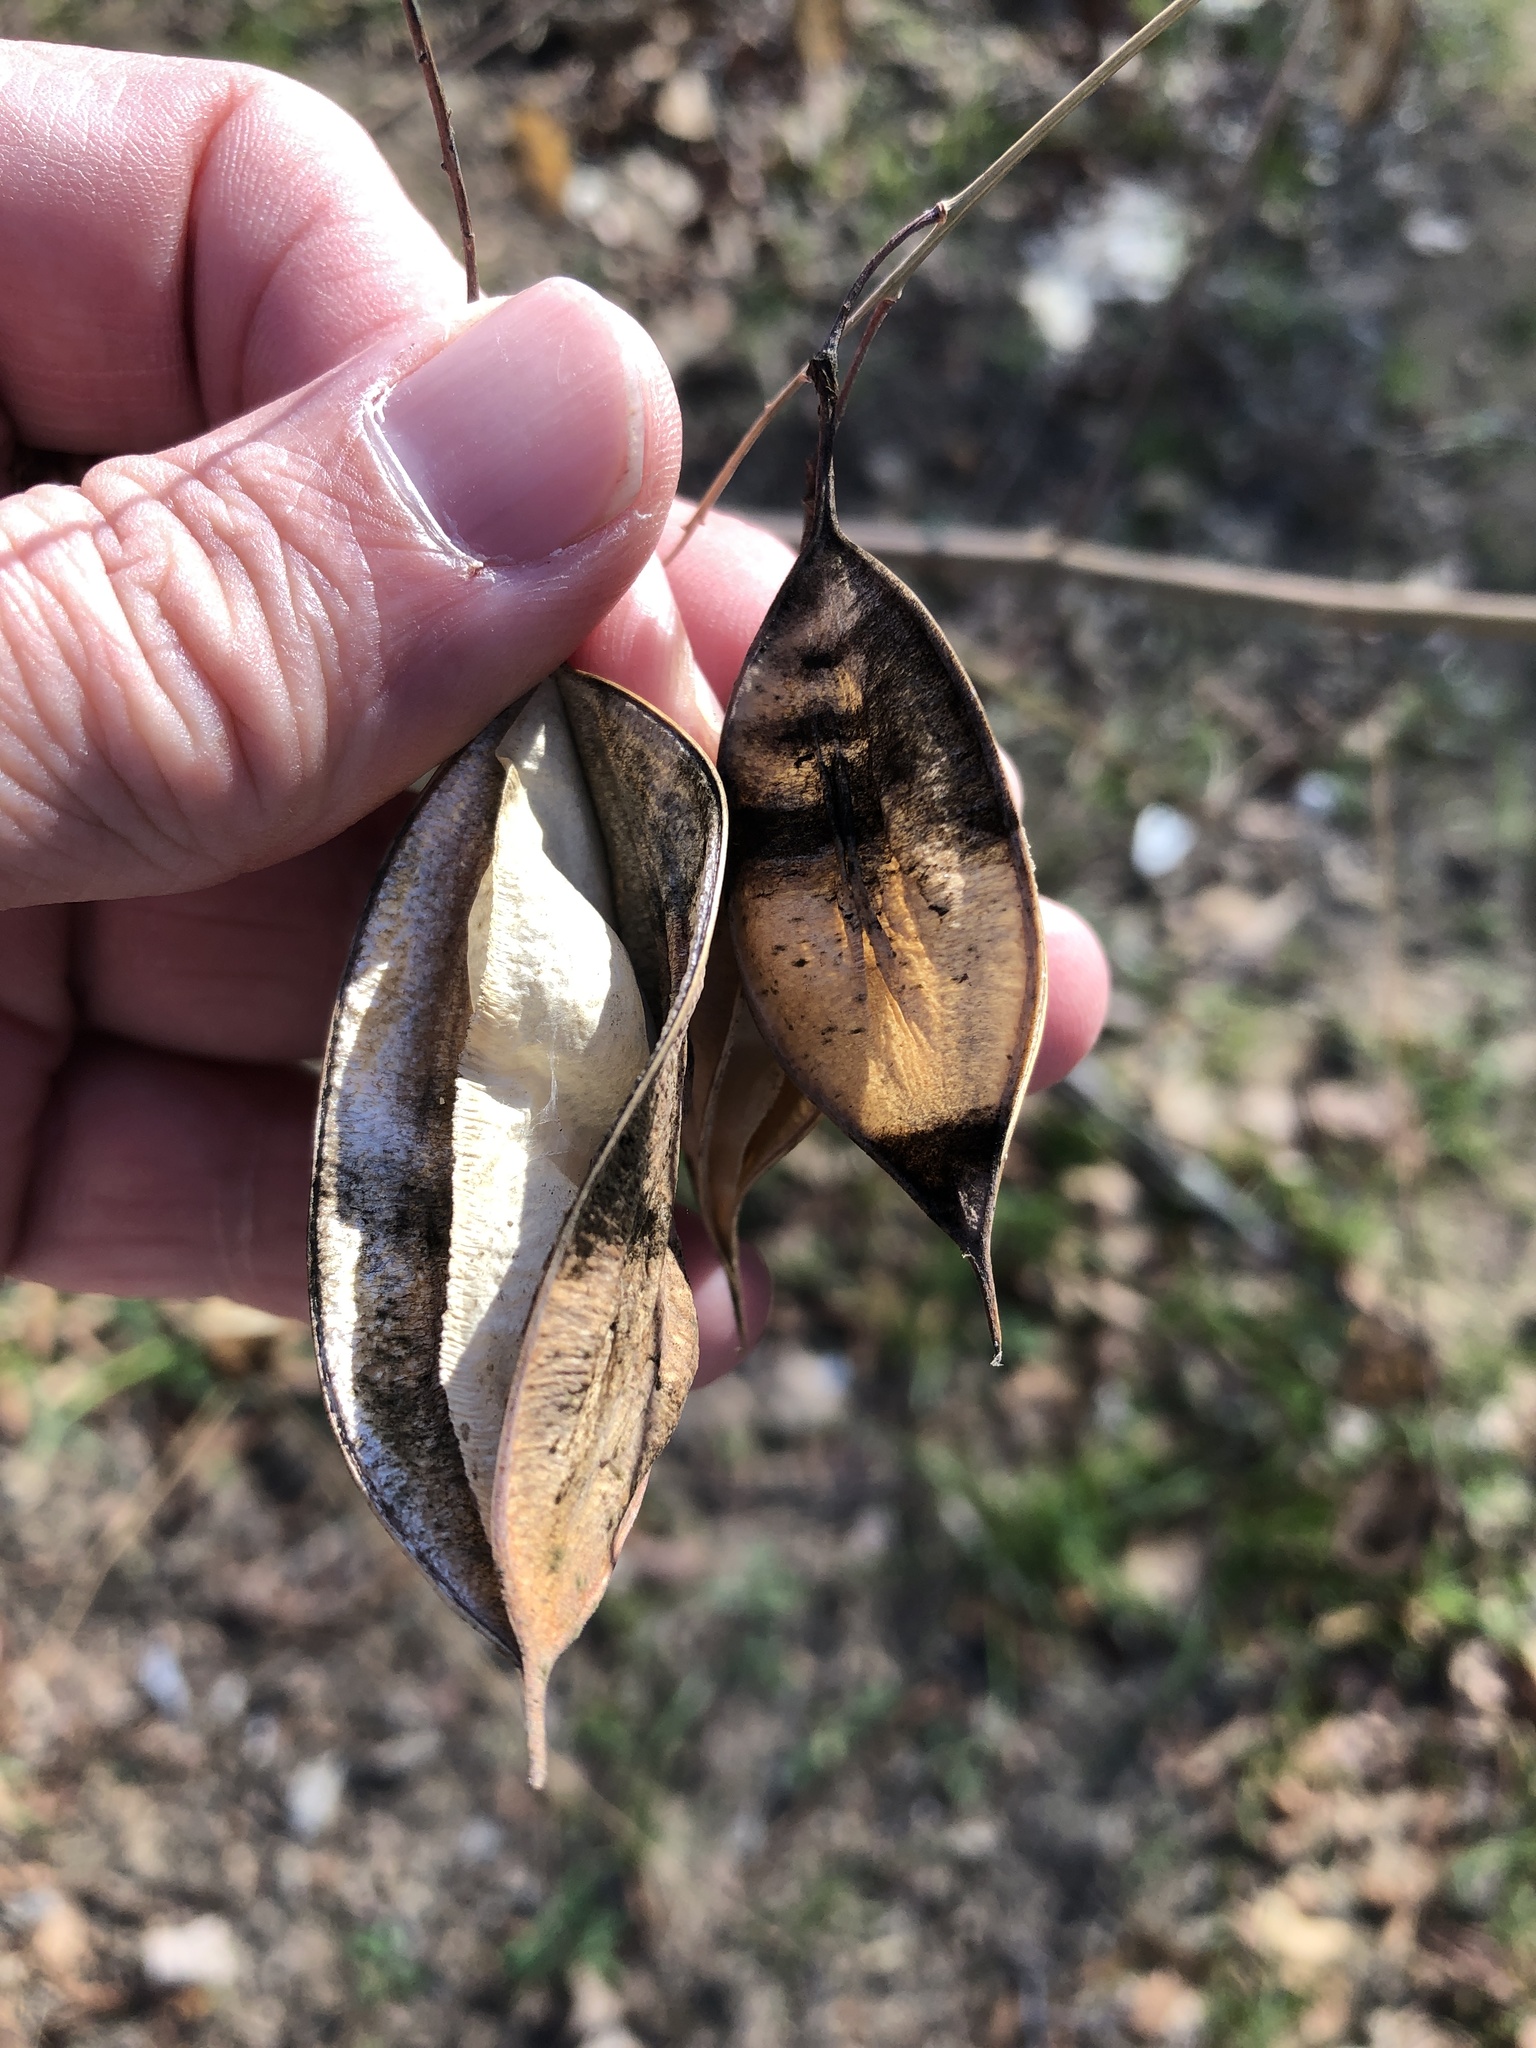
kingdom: Plantae
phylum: Tracheophyta
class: Magnoliopsida
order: Fabales
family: Fabaceae
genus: Sesbania
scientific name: Sesbania vesicaria
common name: Bagpod
